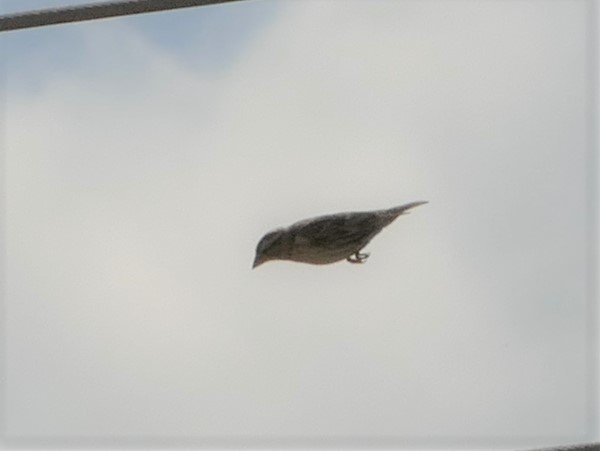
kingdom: Animalia
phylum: Chordata
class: Aves
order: Passeriformes
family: Passeridae
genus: Petronia
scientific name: Petronia petronia
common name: Rock sparrow
